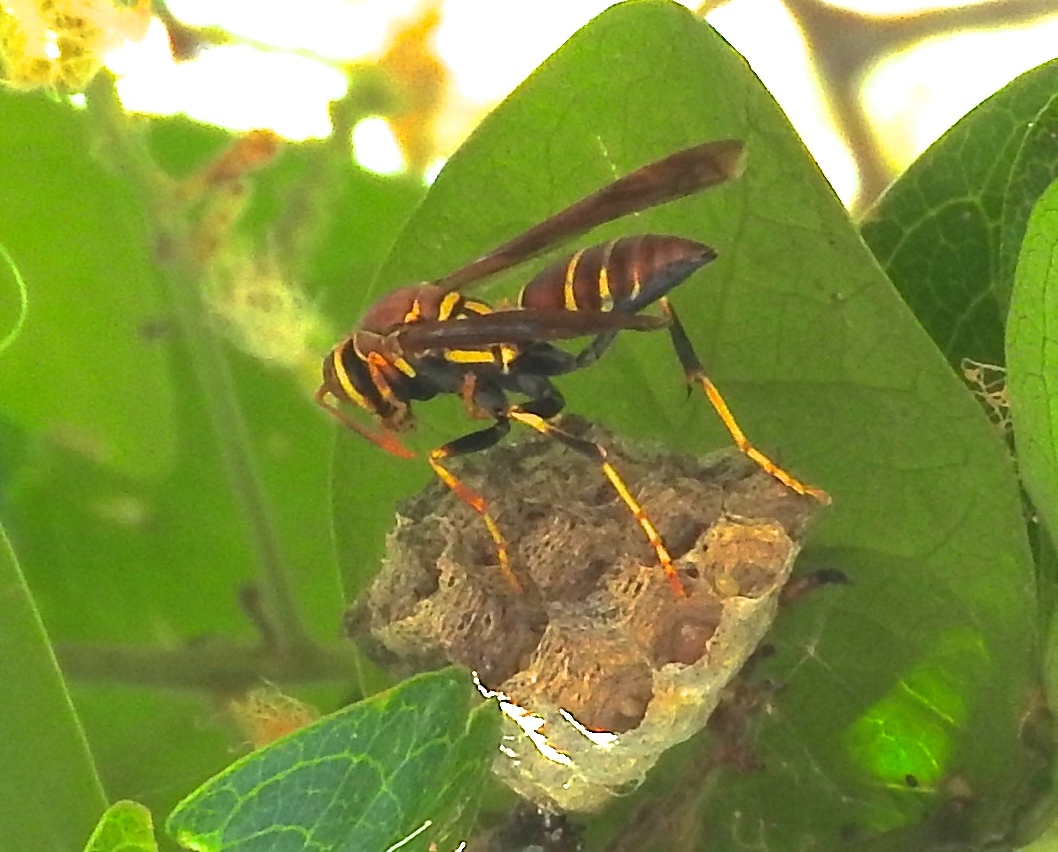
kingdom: Animalia
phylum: Arthropoda
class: Insecta
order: Hymenoptera
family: Eumenidae
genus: Polistes
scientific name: Polistes instabilis
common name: Unstable paper wasp
